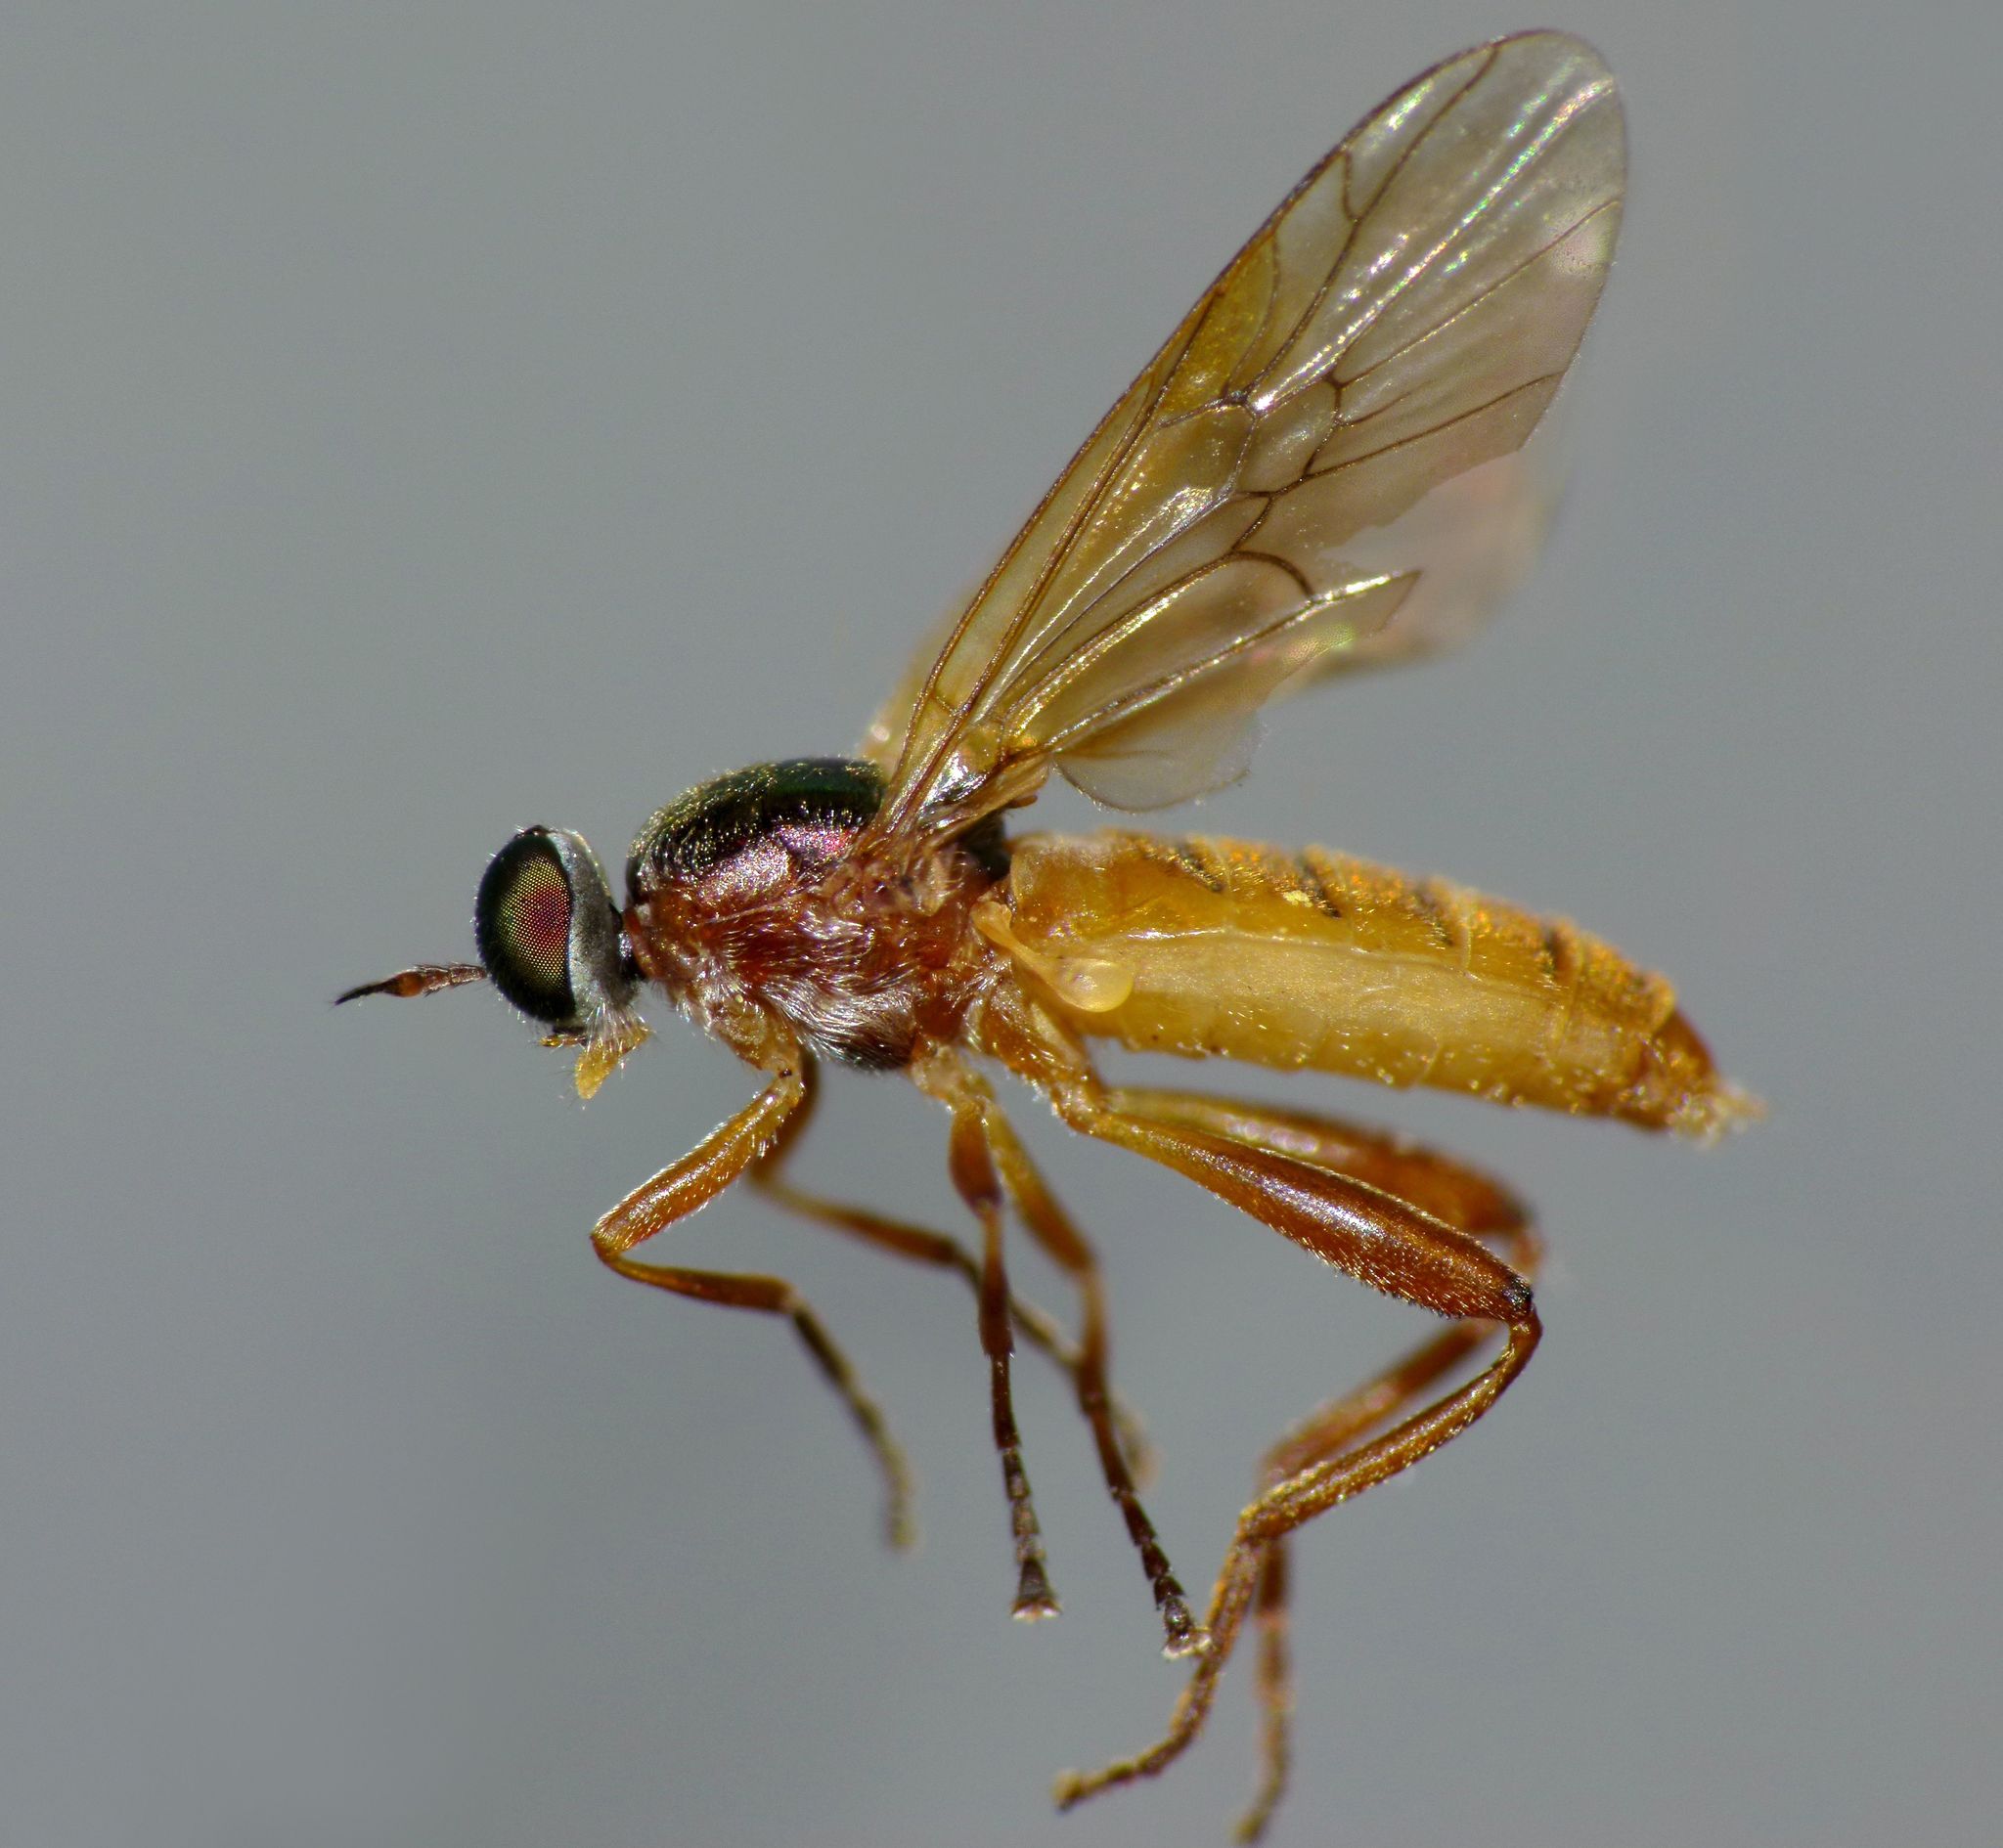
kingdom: Animalia
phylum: Arthropoda
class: Insecta
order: Diptera
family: Stratiomyidae
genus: Neactina
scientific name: Neactina opposita
